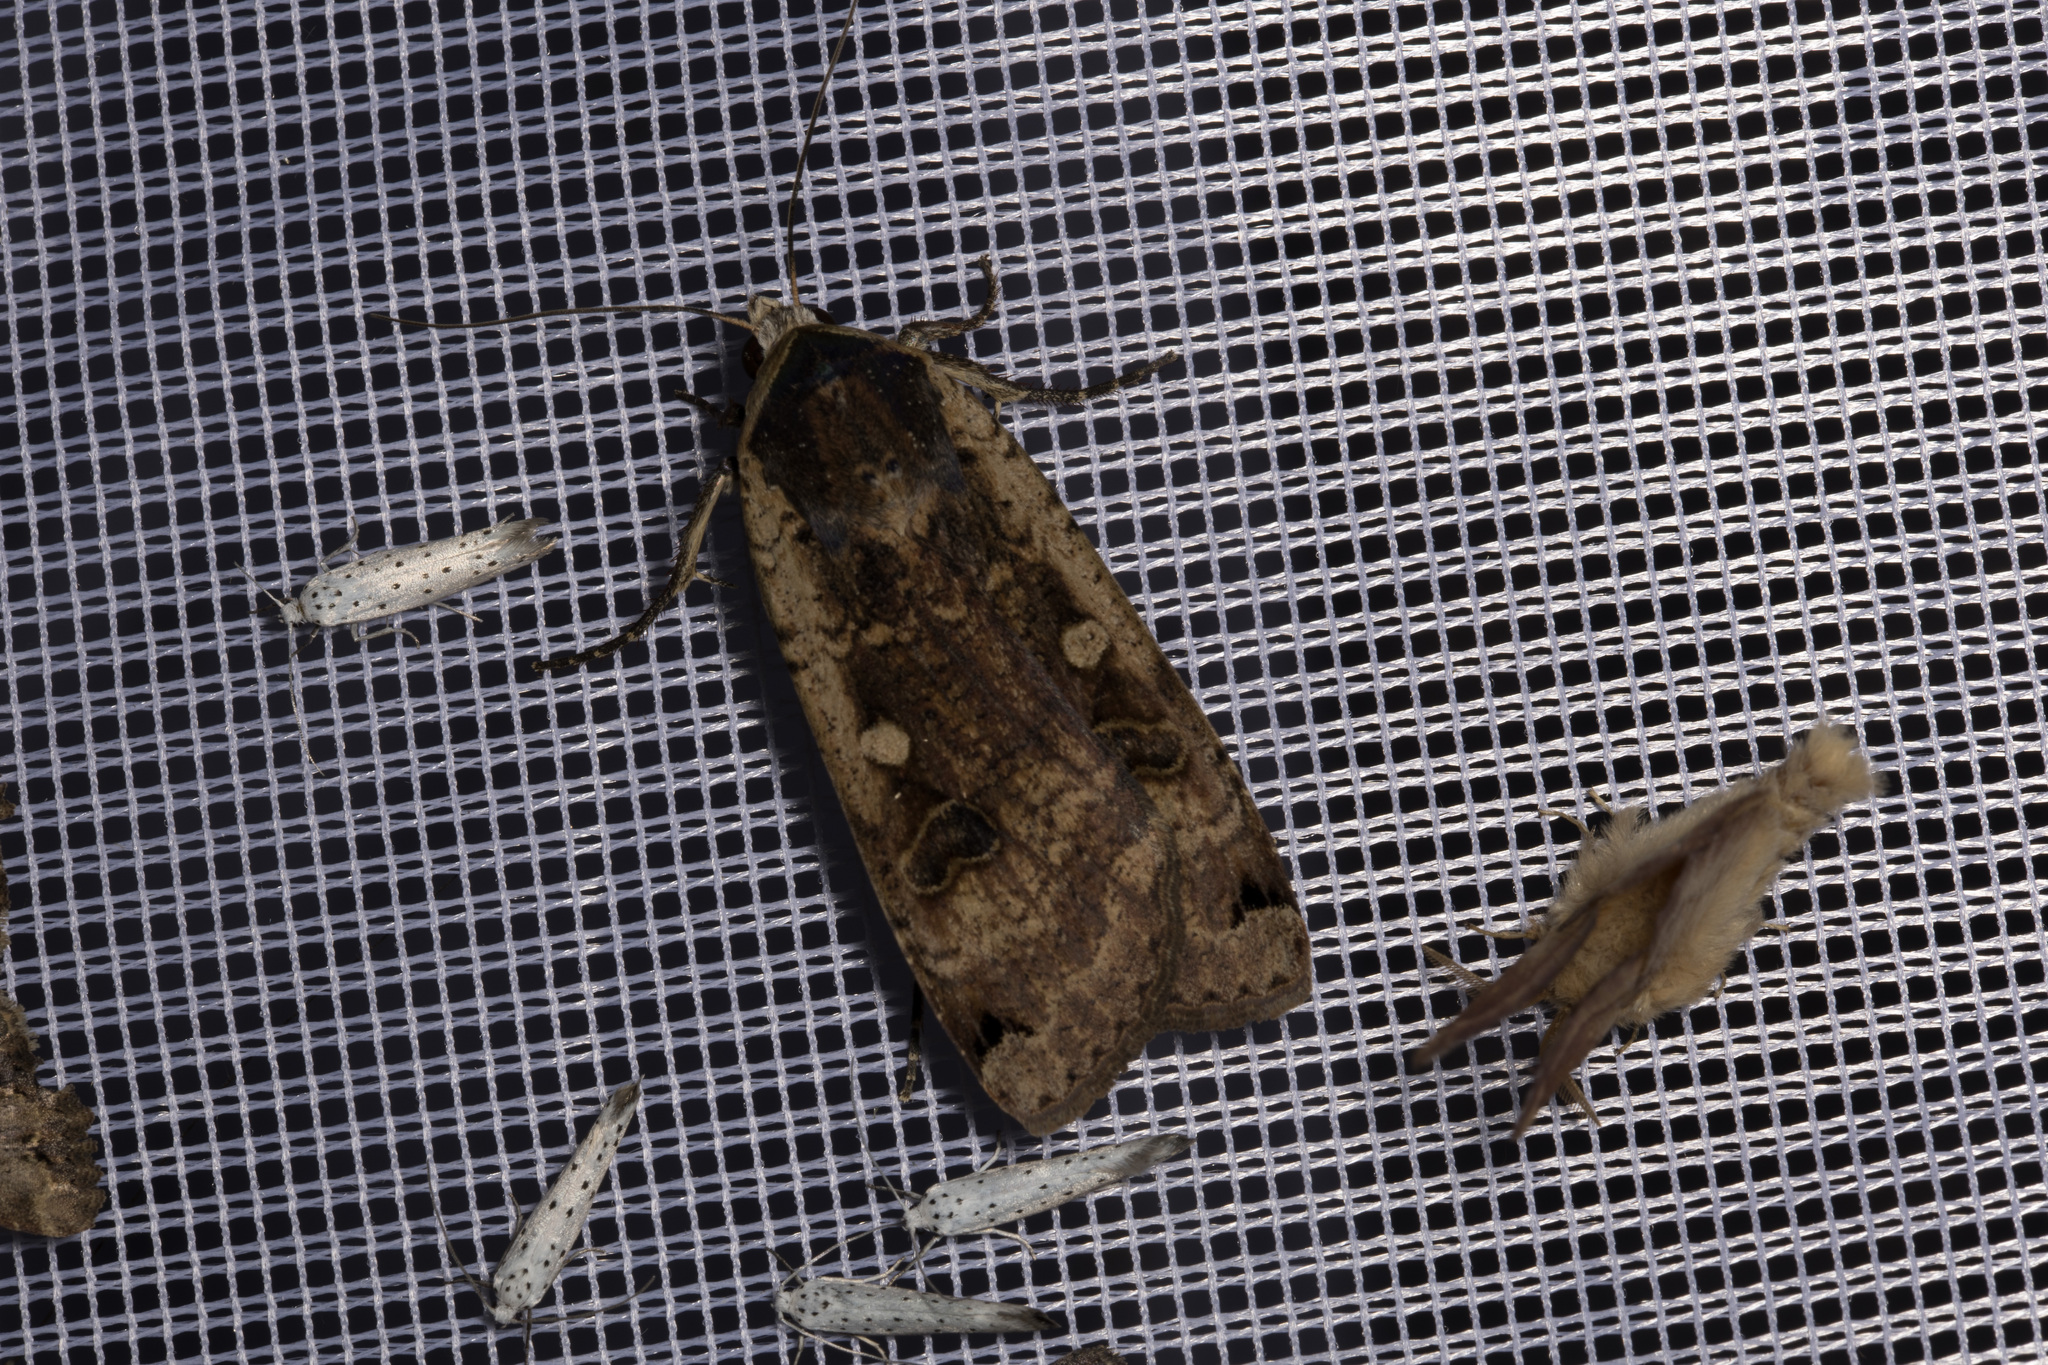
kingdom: Animalia
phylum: Arthropoda
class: Insecta
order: Lepidoptera
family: Noctuidae
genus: Noctua
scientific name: Noctua pronuba
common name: Large yellow underwing
